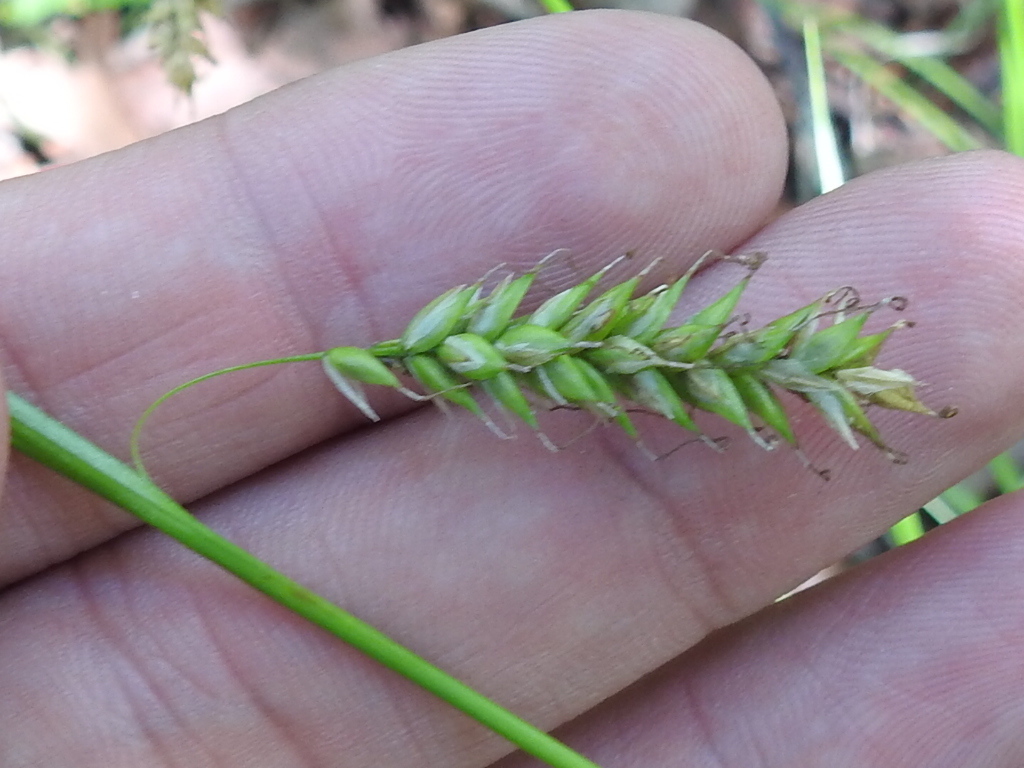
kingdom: Plantae
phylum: Tracheophyta
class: Liliopsida
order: Poales
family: Cyperaceae
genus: Carex
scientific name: Carex cherokeensis
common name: Cherokee sedge
